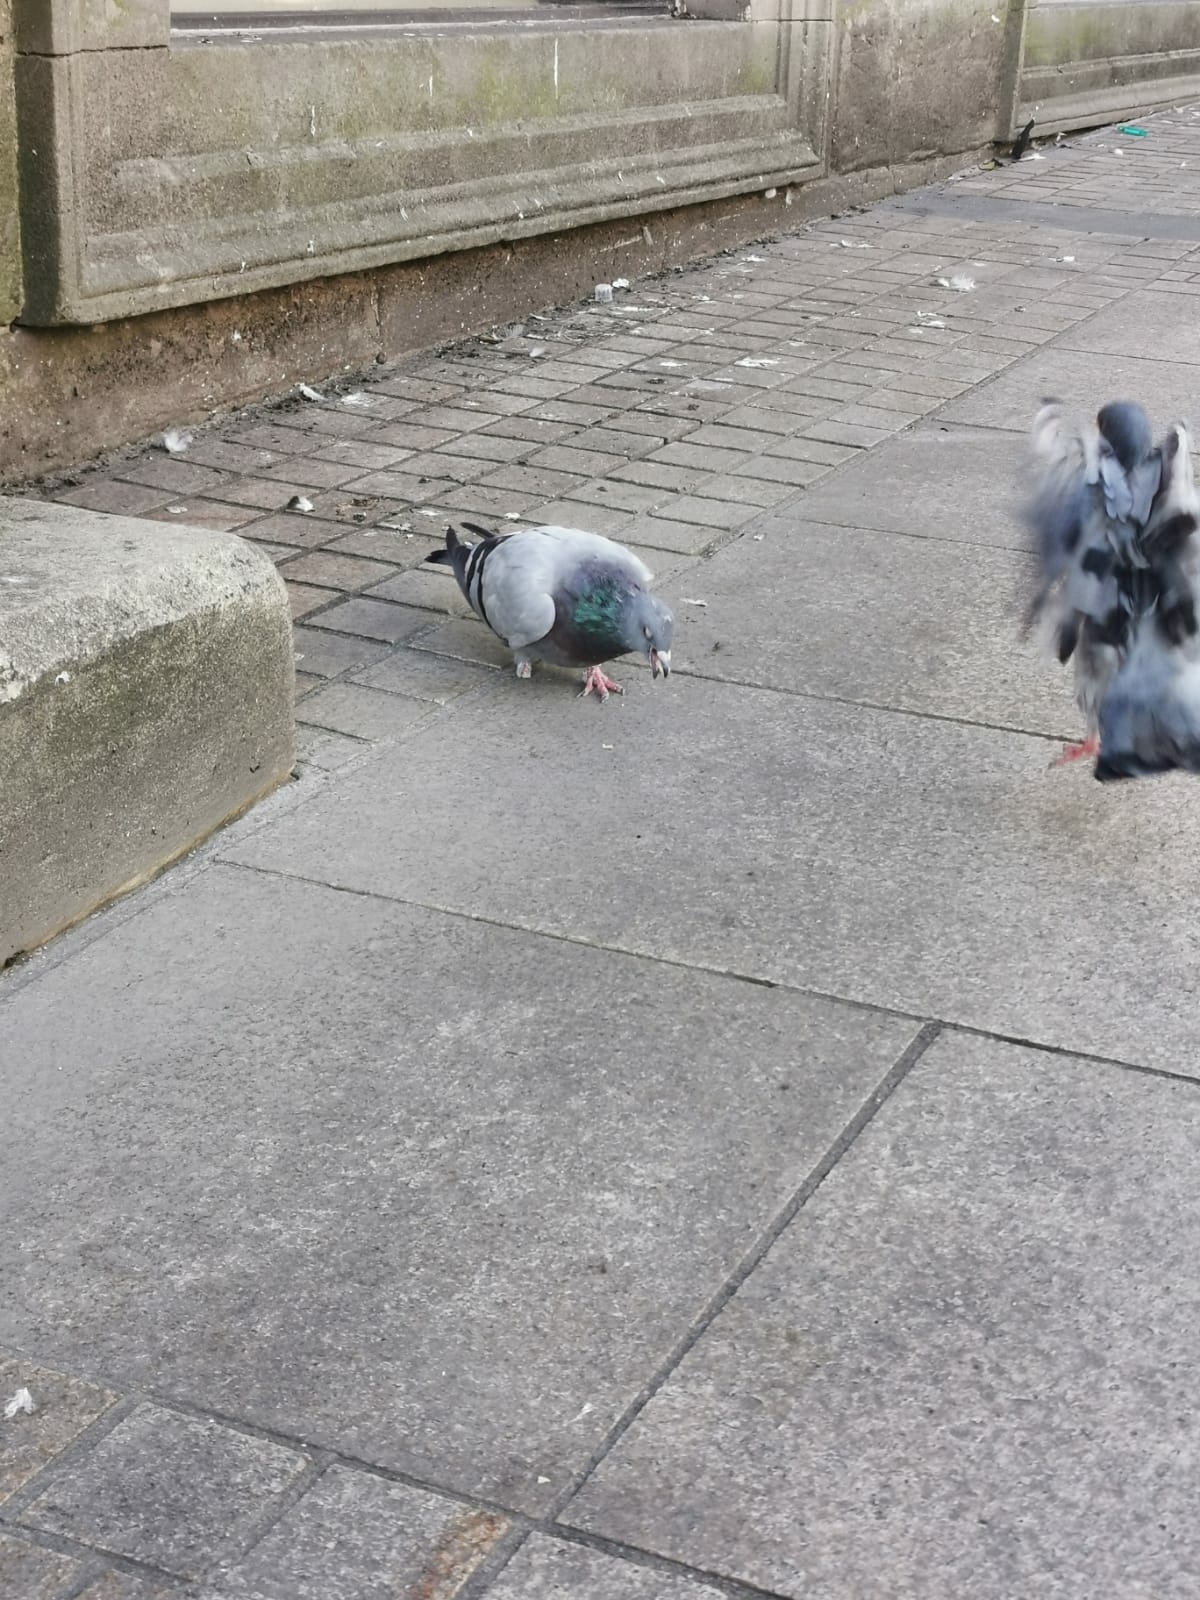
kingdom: Animalia
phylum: Chordata
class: Aves
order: Columbiformes
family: Columbidae
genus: Columba
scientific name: Columba livia
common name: Rock pigeon
